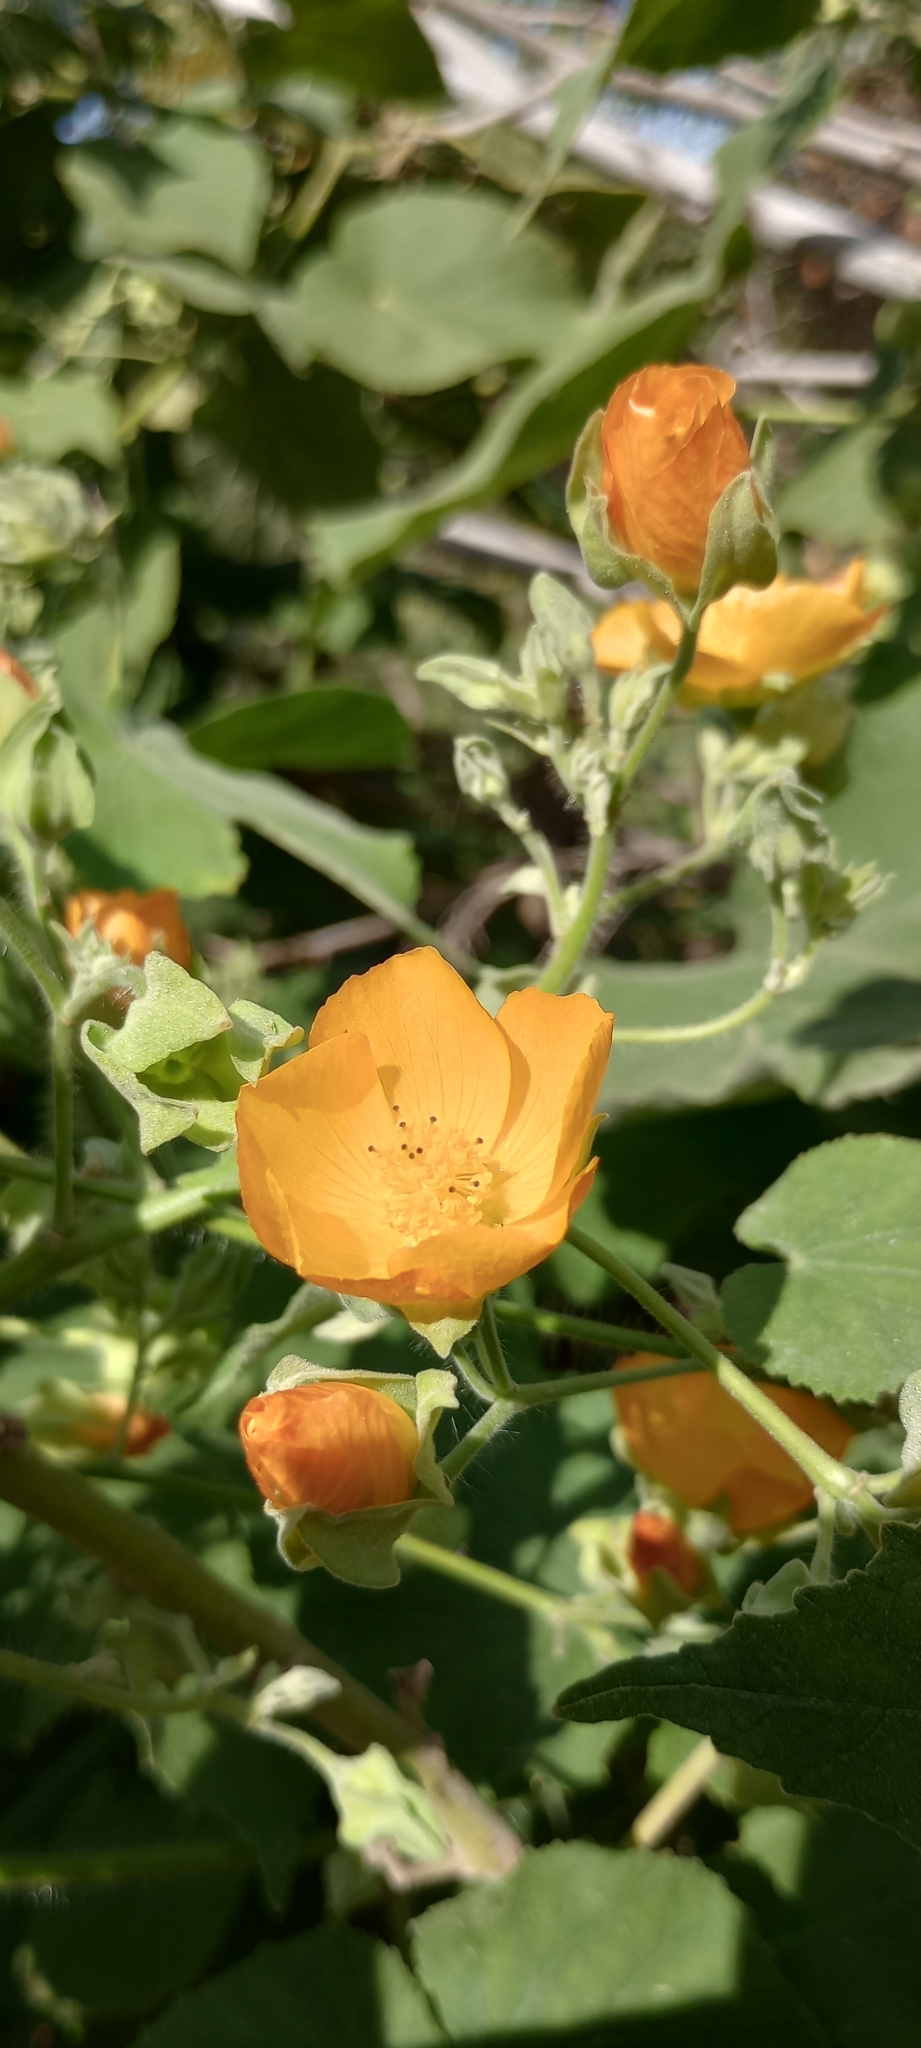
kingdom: Plantae
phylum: Tracheophyta
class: Magnoliopsida
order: Malvales
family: Malvaceae
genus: Abutilon
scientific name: Abutilon grandifolium
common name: Hairy abutilon
